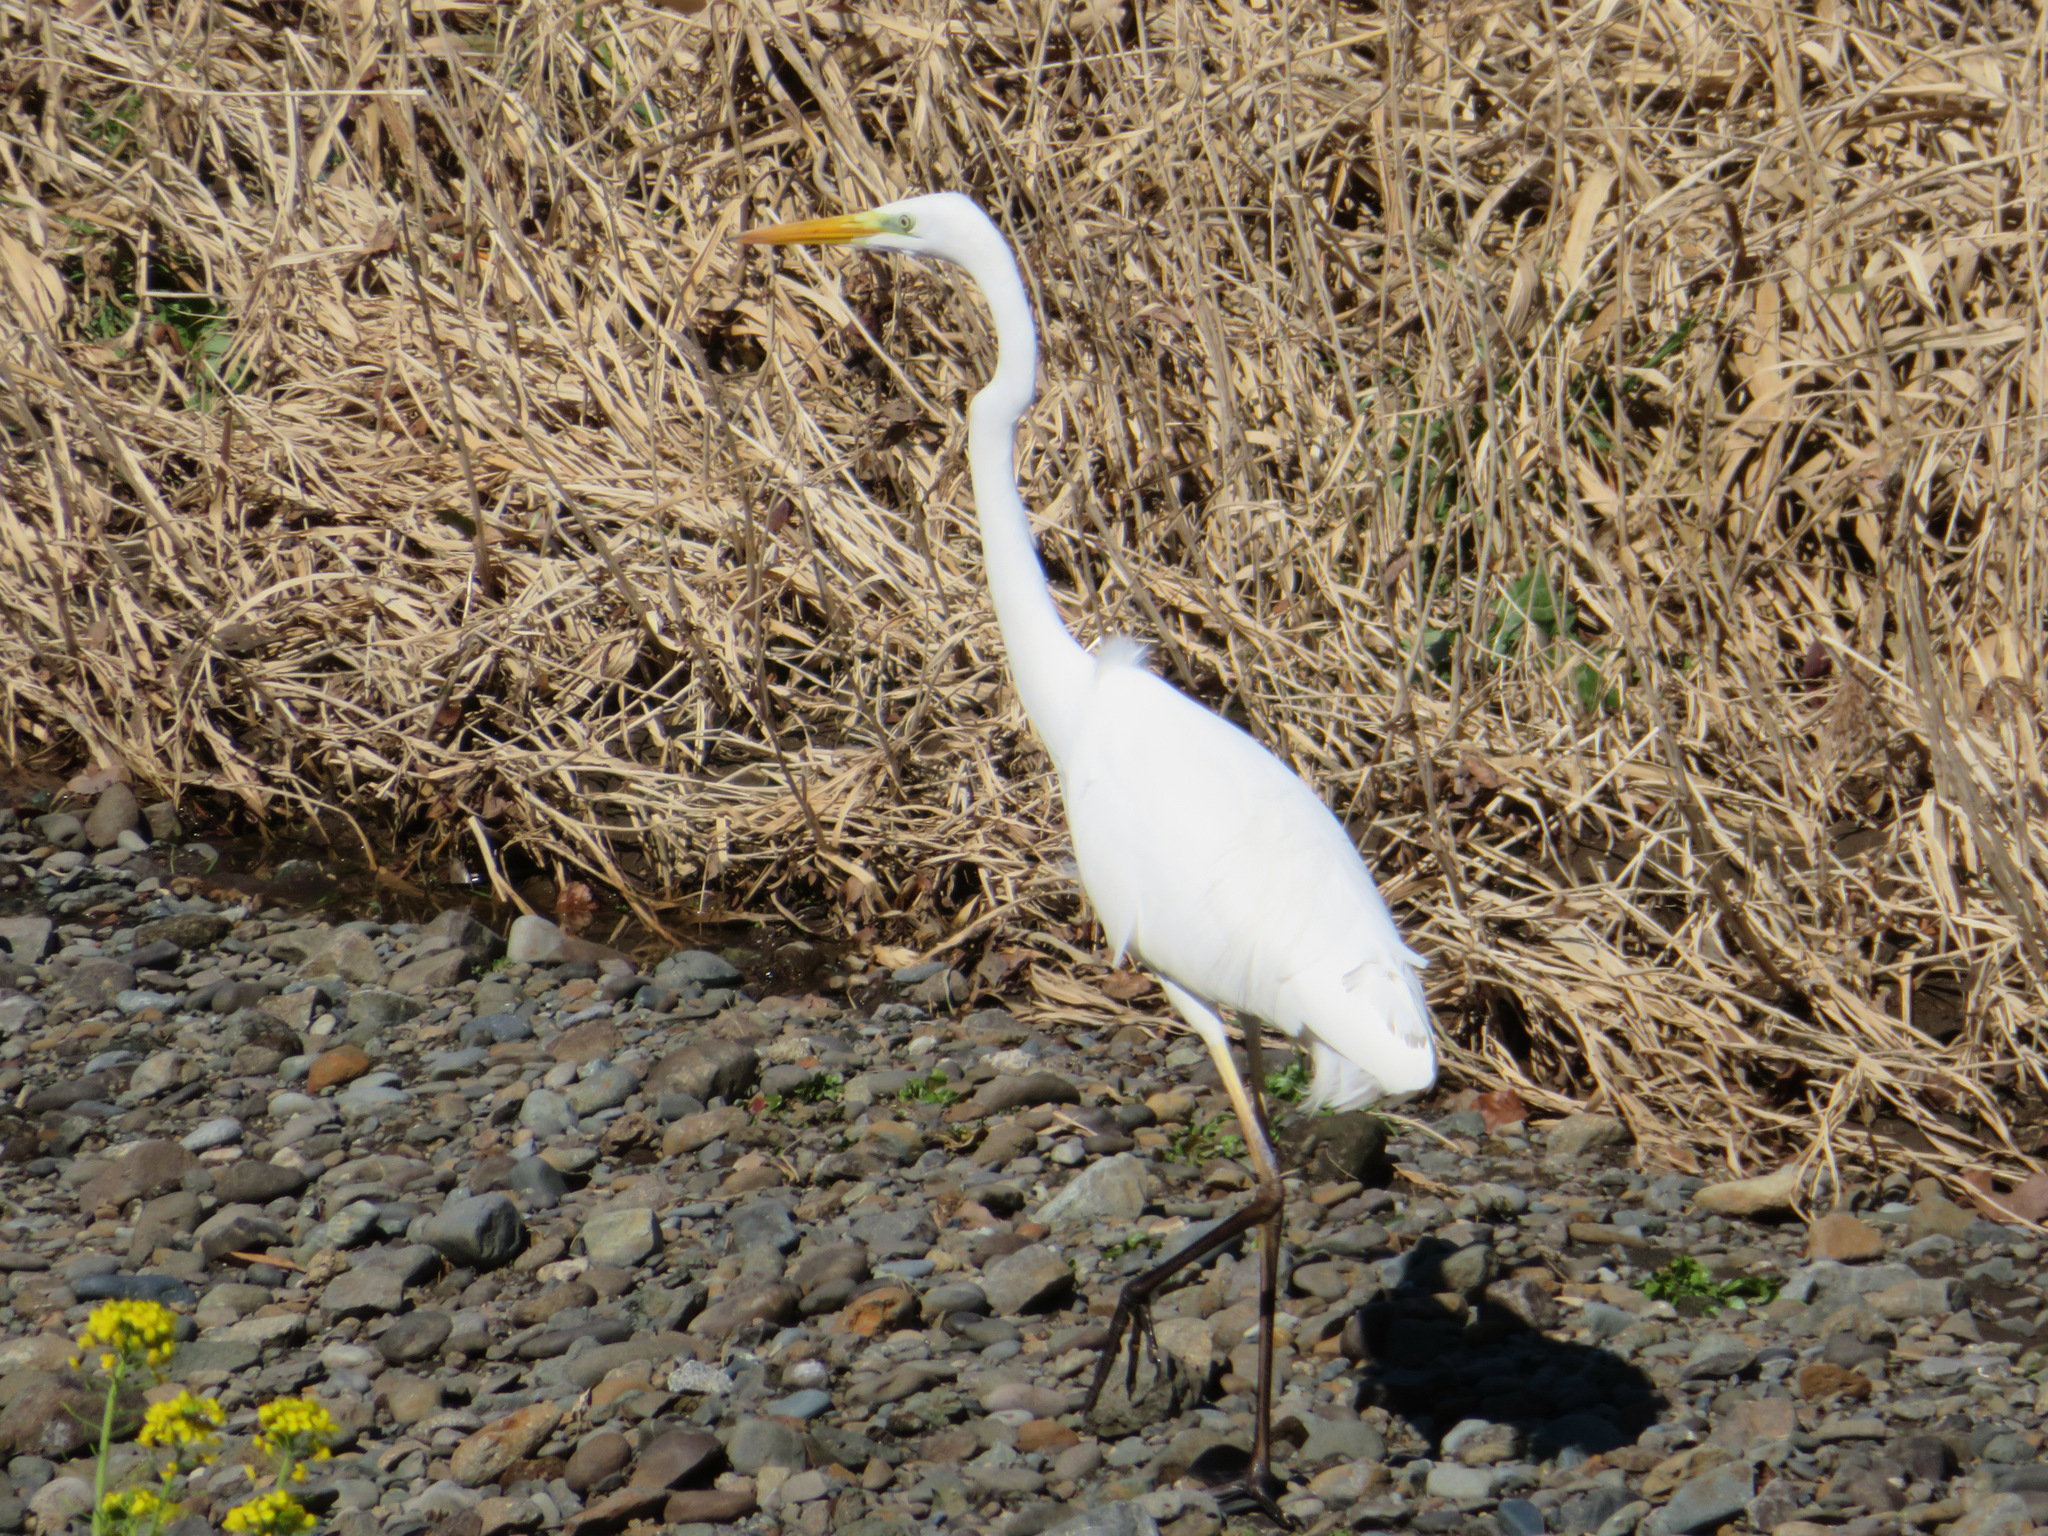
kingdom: Animalia
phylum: Chordata
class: Aves
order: Pelecaniformes
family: Ardeidae
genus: Ardea
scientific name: Ardea alba
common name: Great egret
